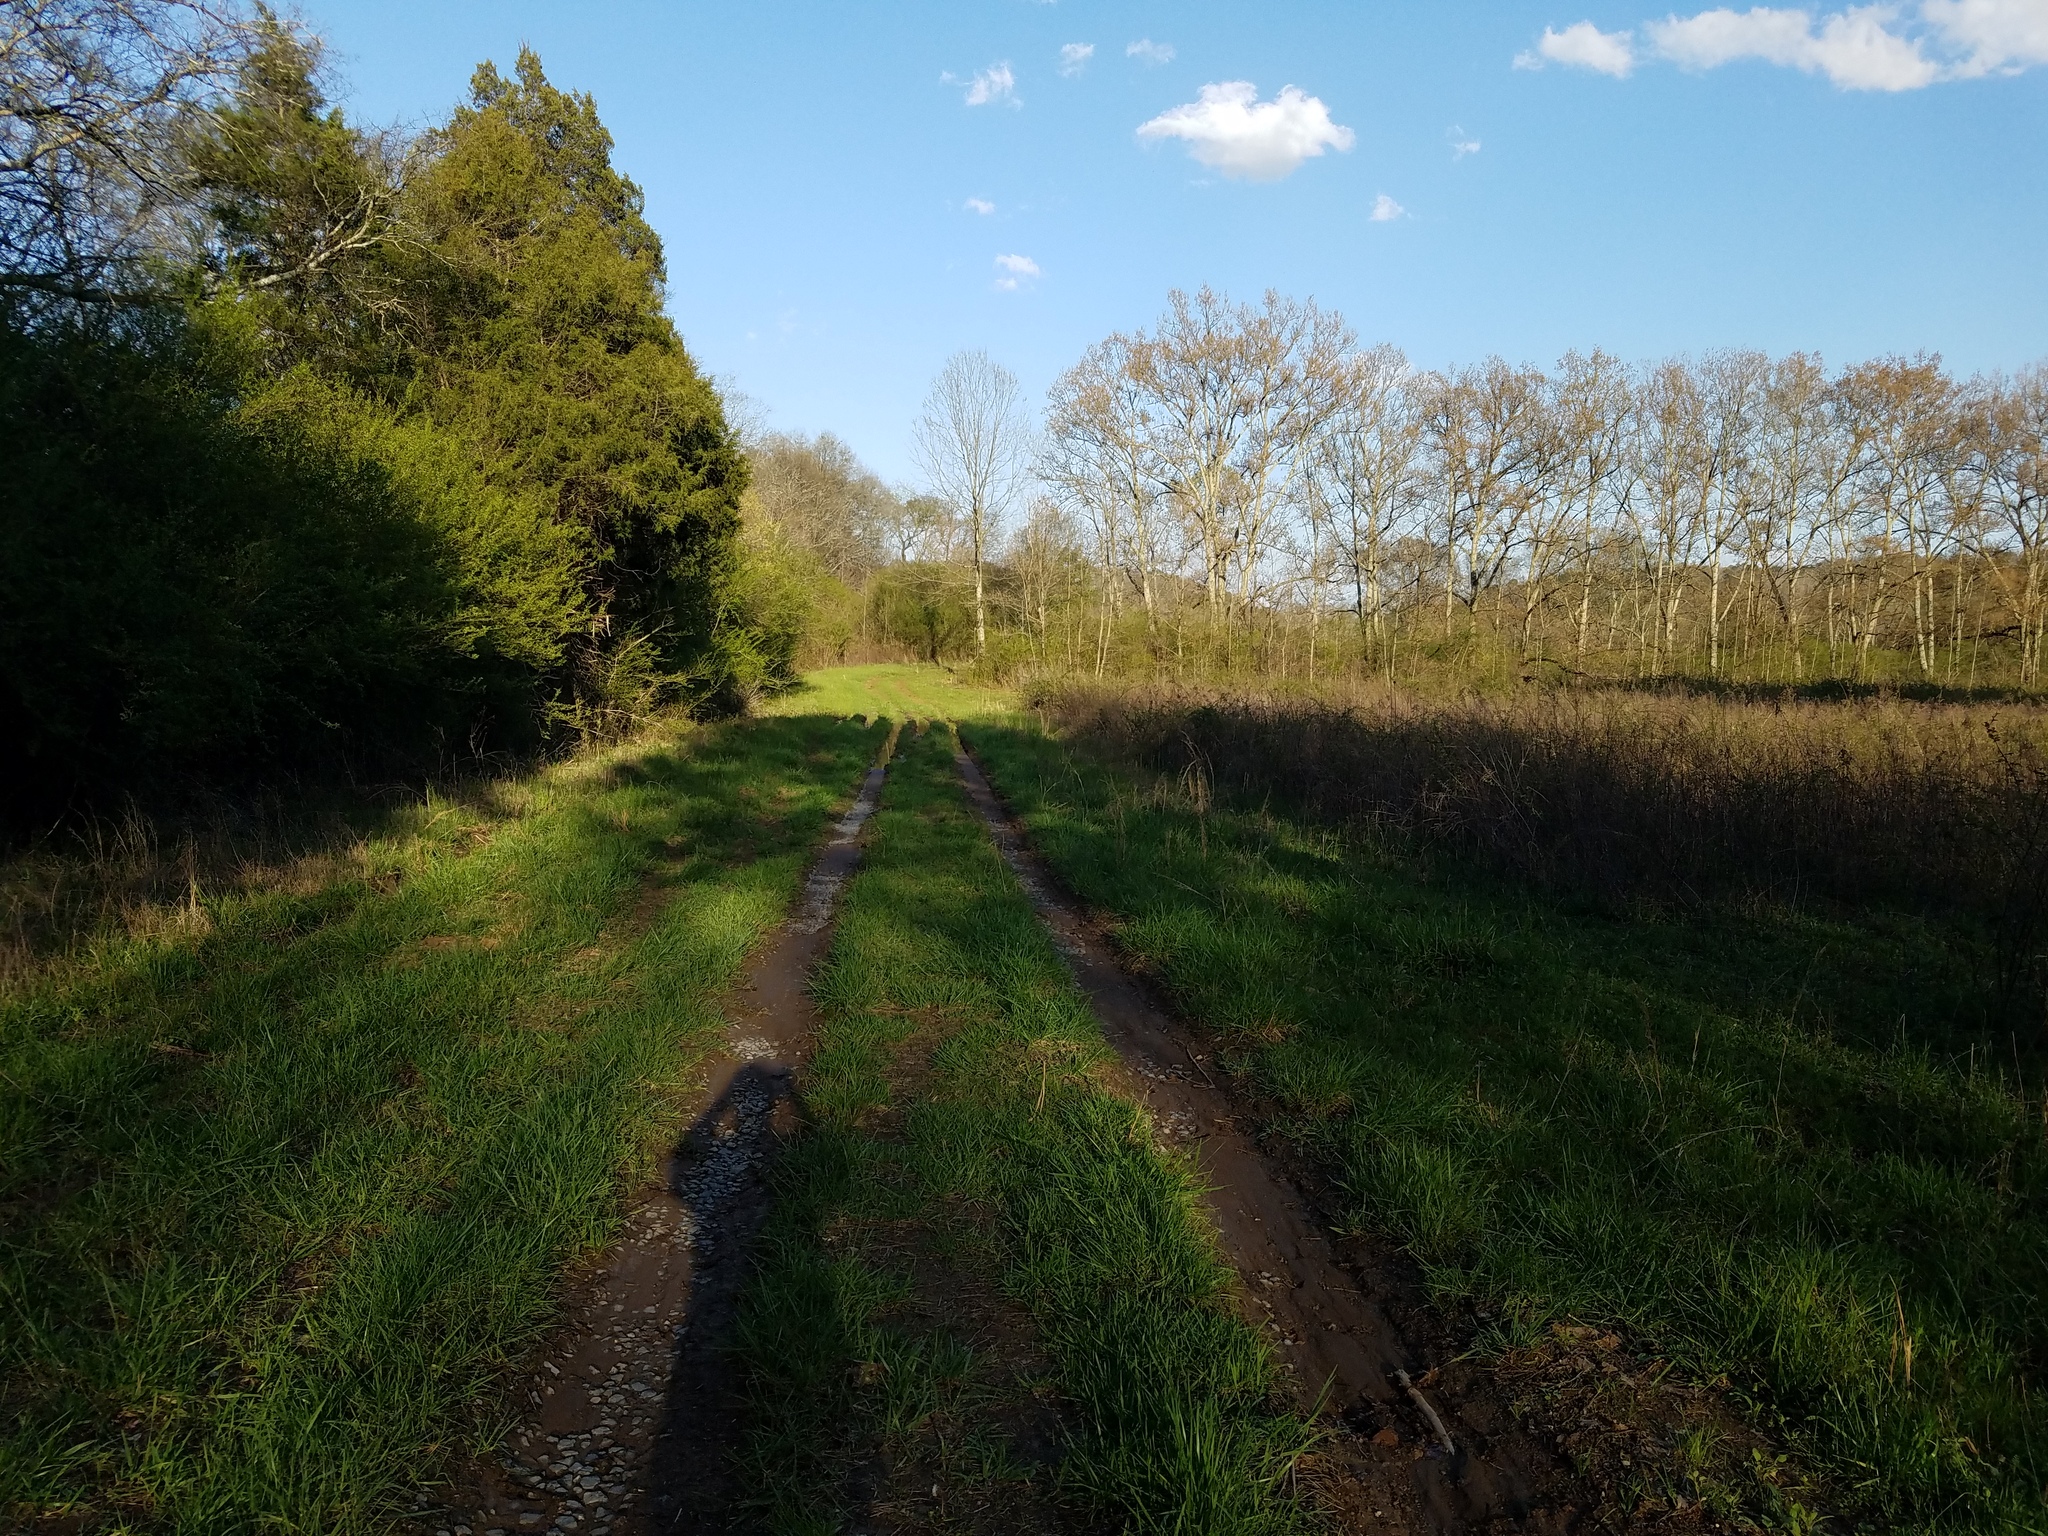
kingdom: Animalia
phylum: Chordata
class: Amphibia
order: Anura
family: Hylidae
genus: Pseudacris
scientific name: Pseudacris feriarum
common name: Upland chorus frog
